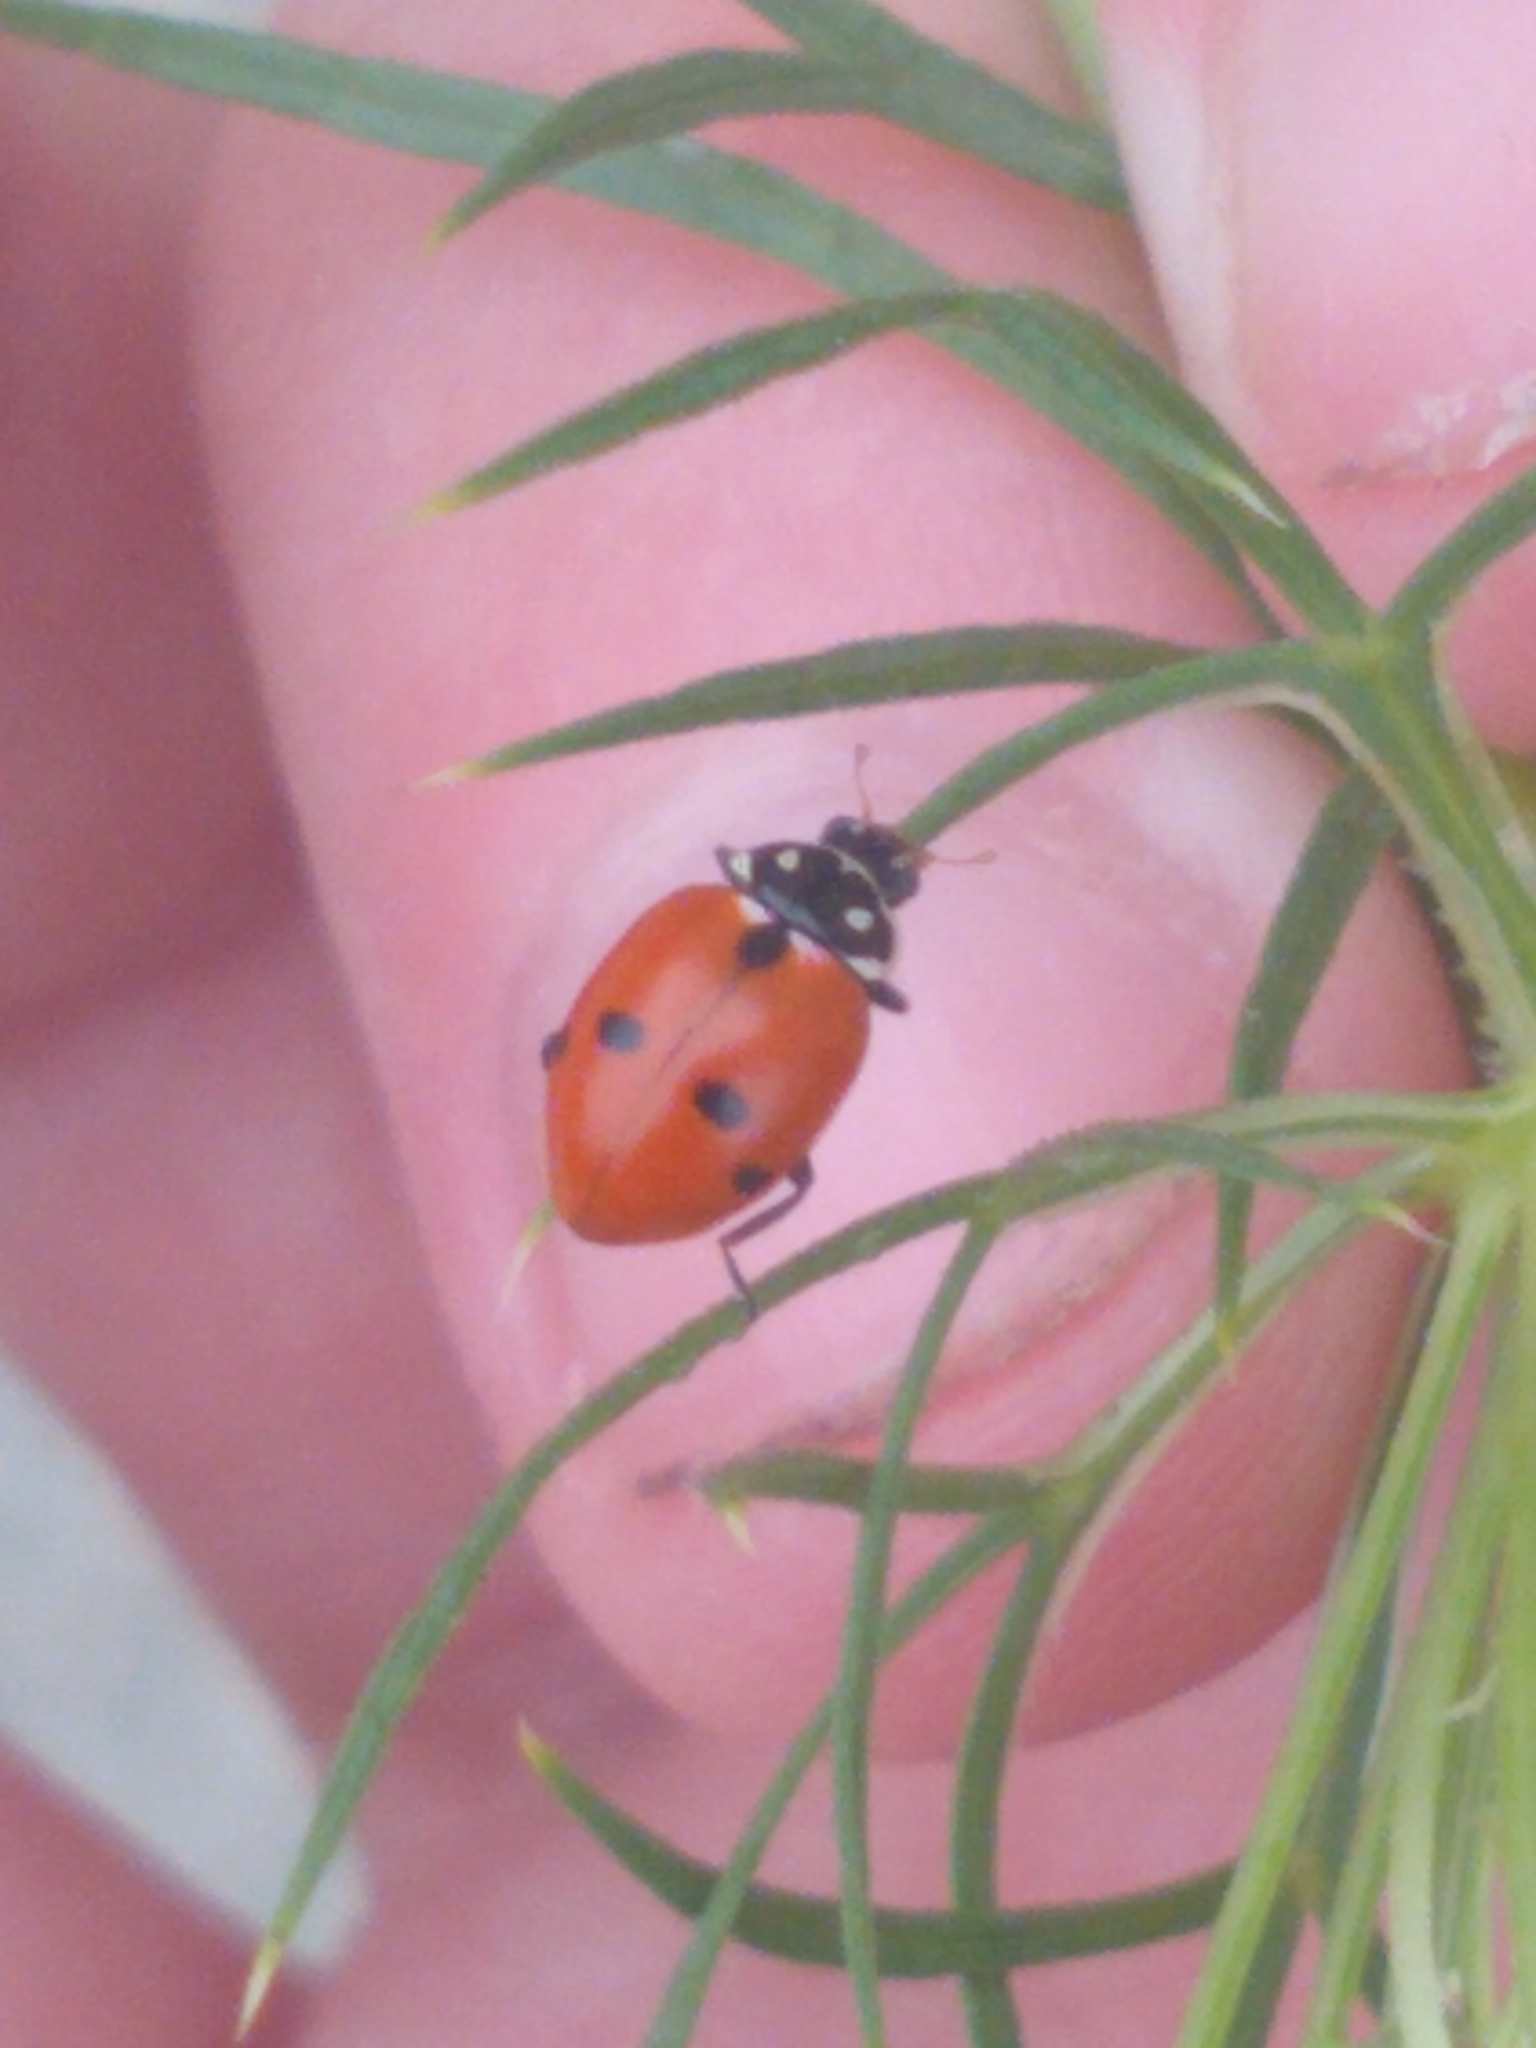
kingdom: Animalia
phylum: Arthropoda
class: Insecta
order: Coleoptera
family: Coccinellidae
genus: Hippodamia
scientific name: Hippodamia variegata
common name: Ladybird beetle
